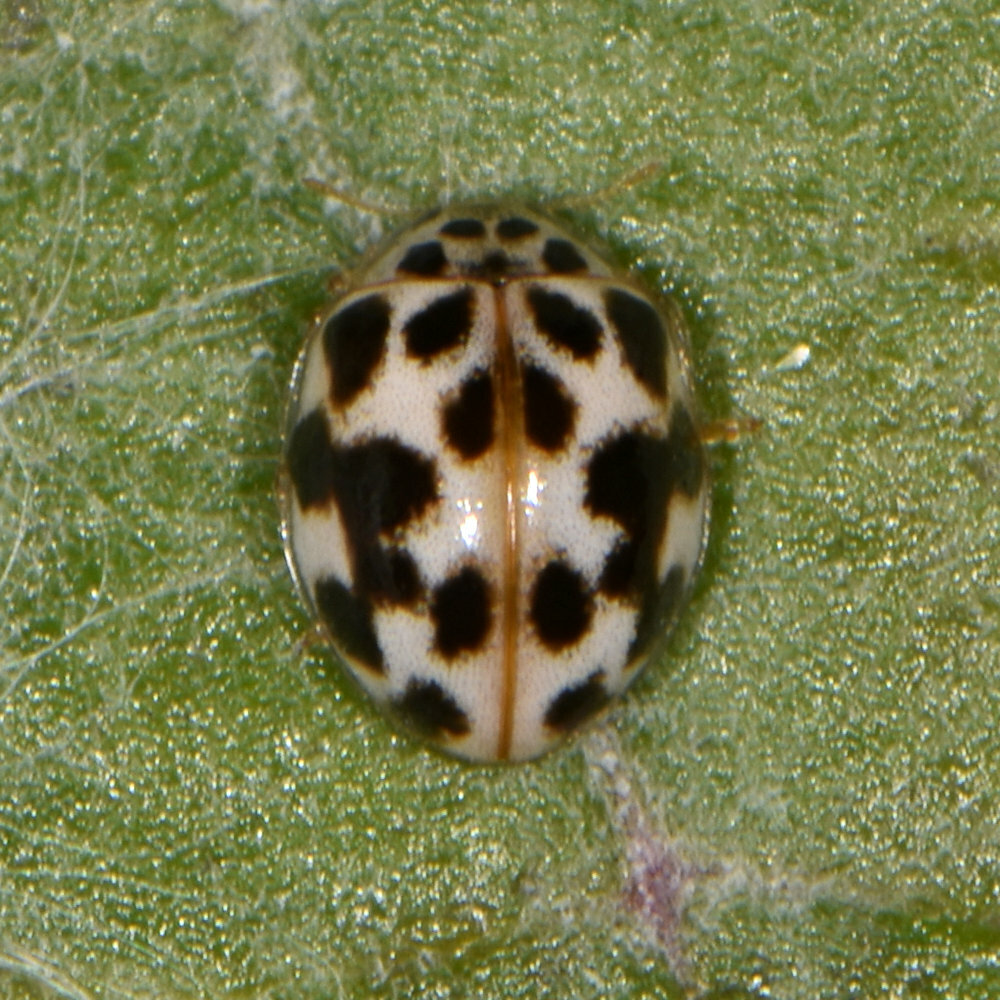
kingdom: Animalia
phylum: Arthropoda
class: Insecta
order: Coleoptera
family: Coccinellidae
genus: Psyllobora
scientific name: Psyllobora vigintimaculata
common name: Ladybird beetle
